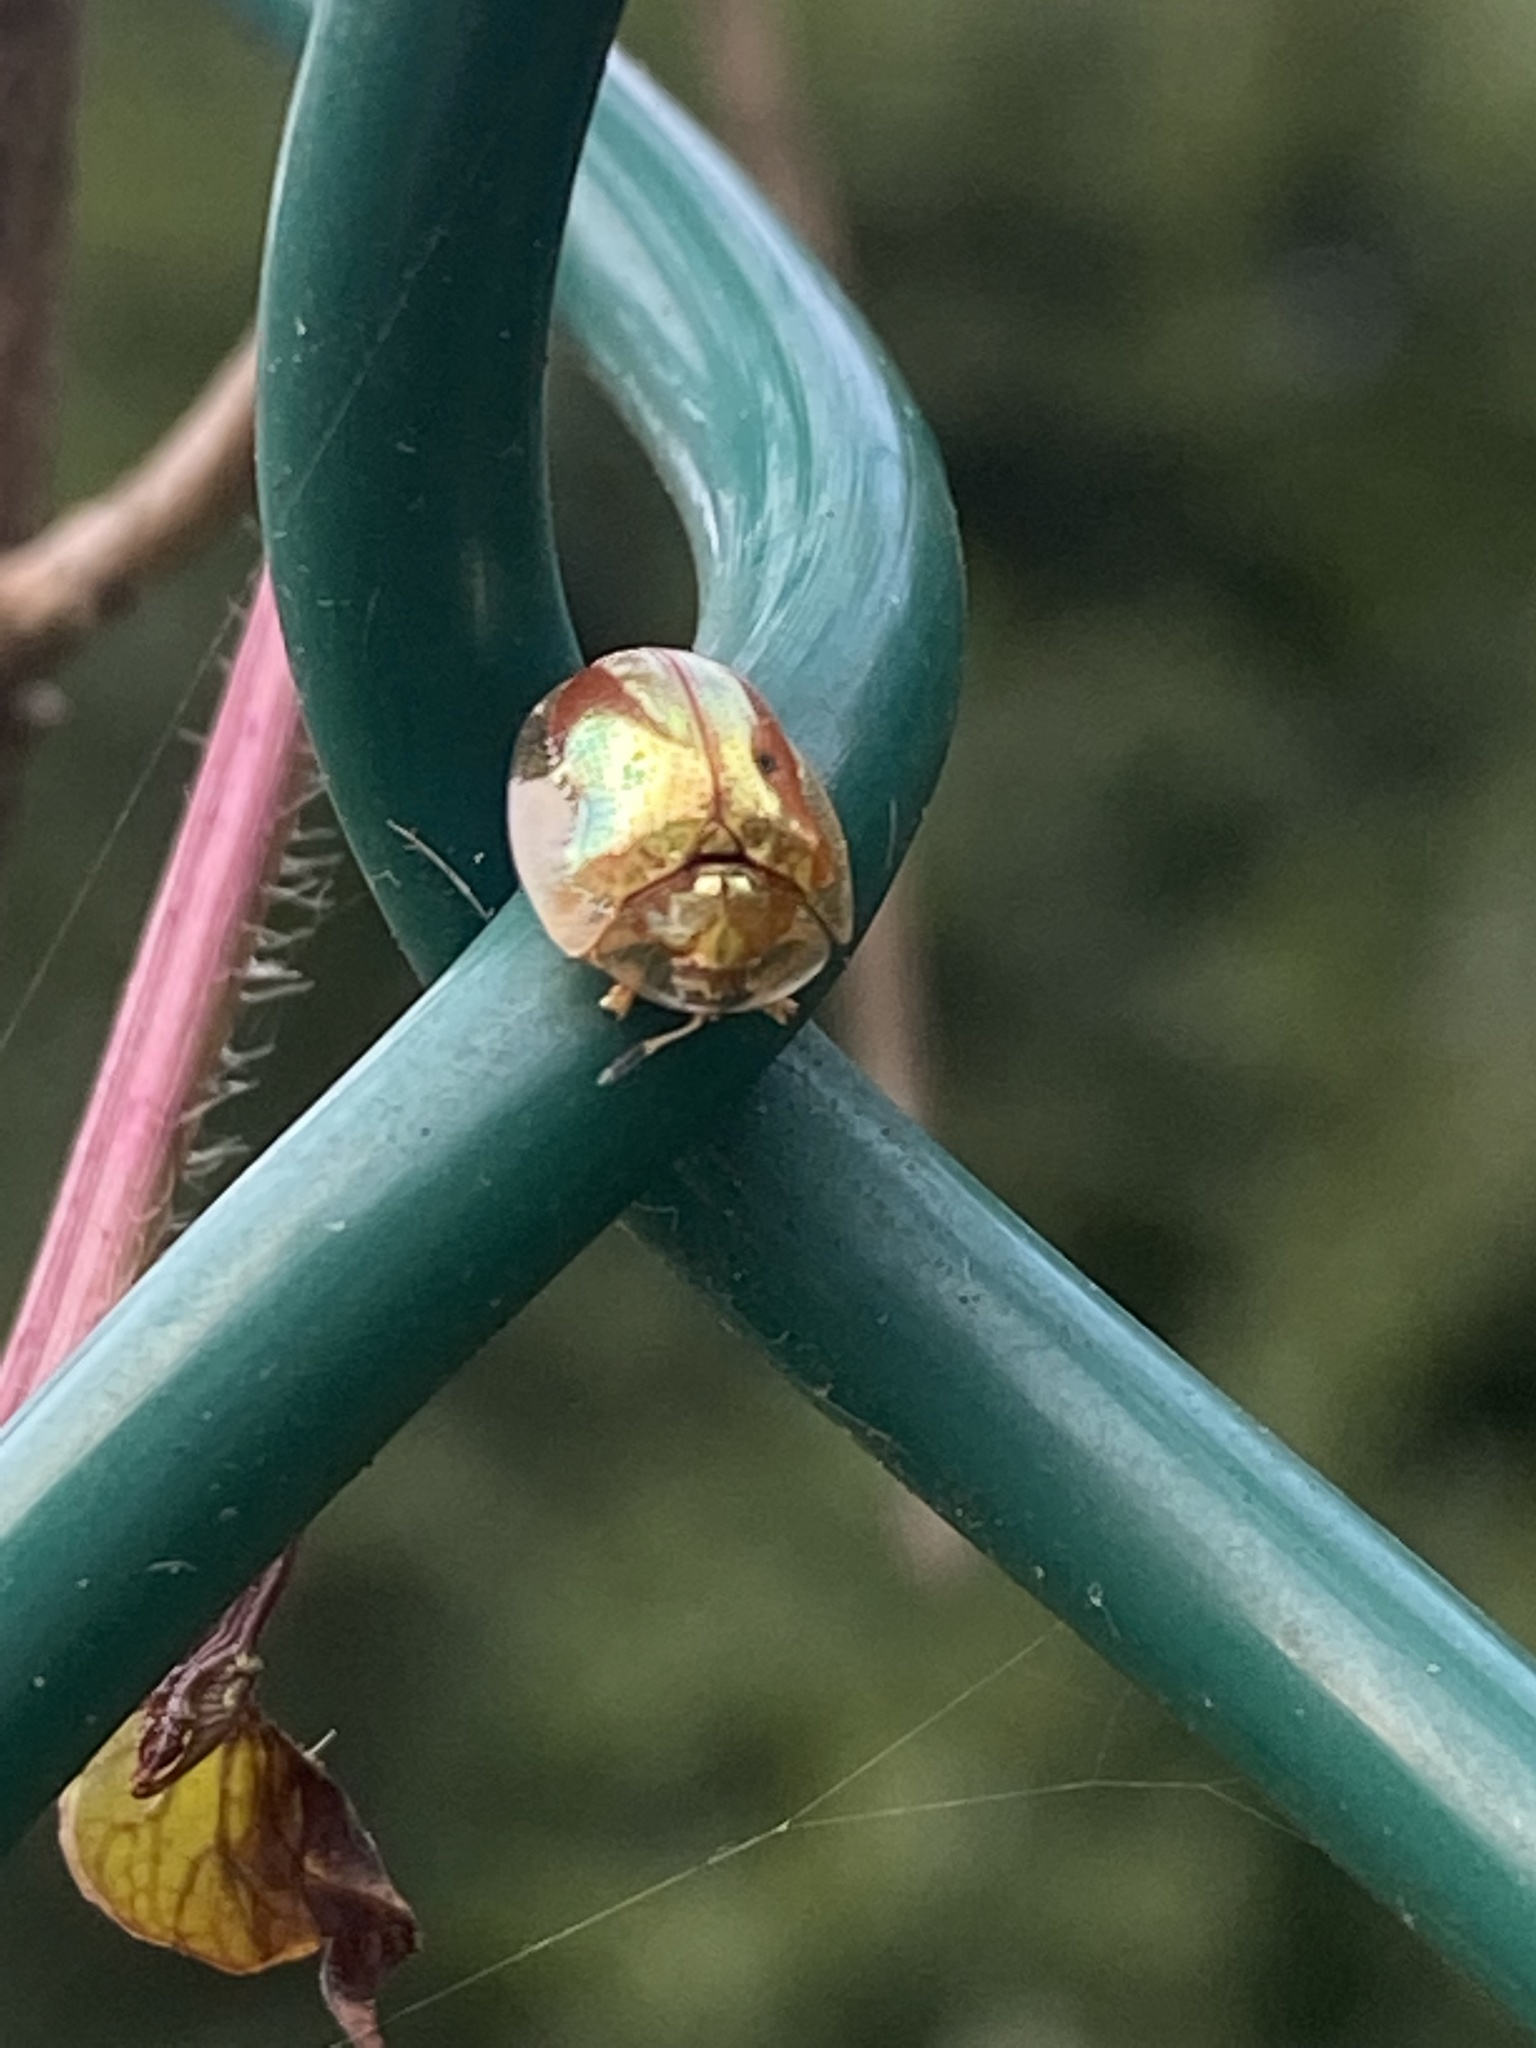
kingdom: Animalia
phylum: Arthropoda
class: Insecta
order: Coleoptera
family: Chrysomelidae
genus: Charidotella
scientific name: Charidotella sexpunctata
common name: Golden tortoise beetle
